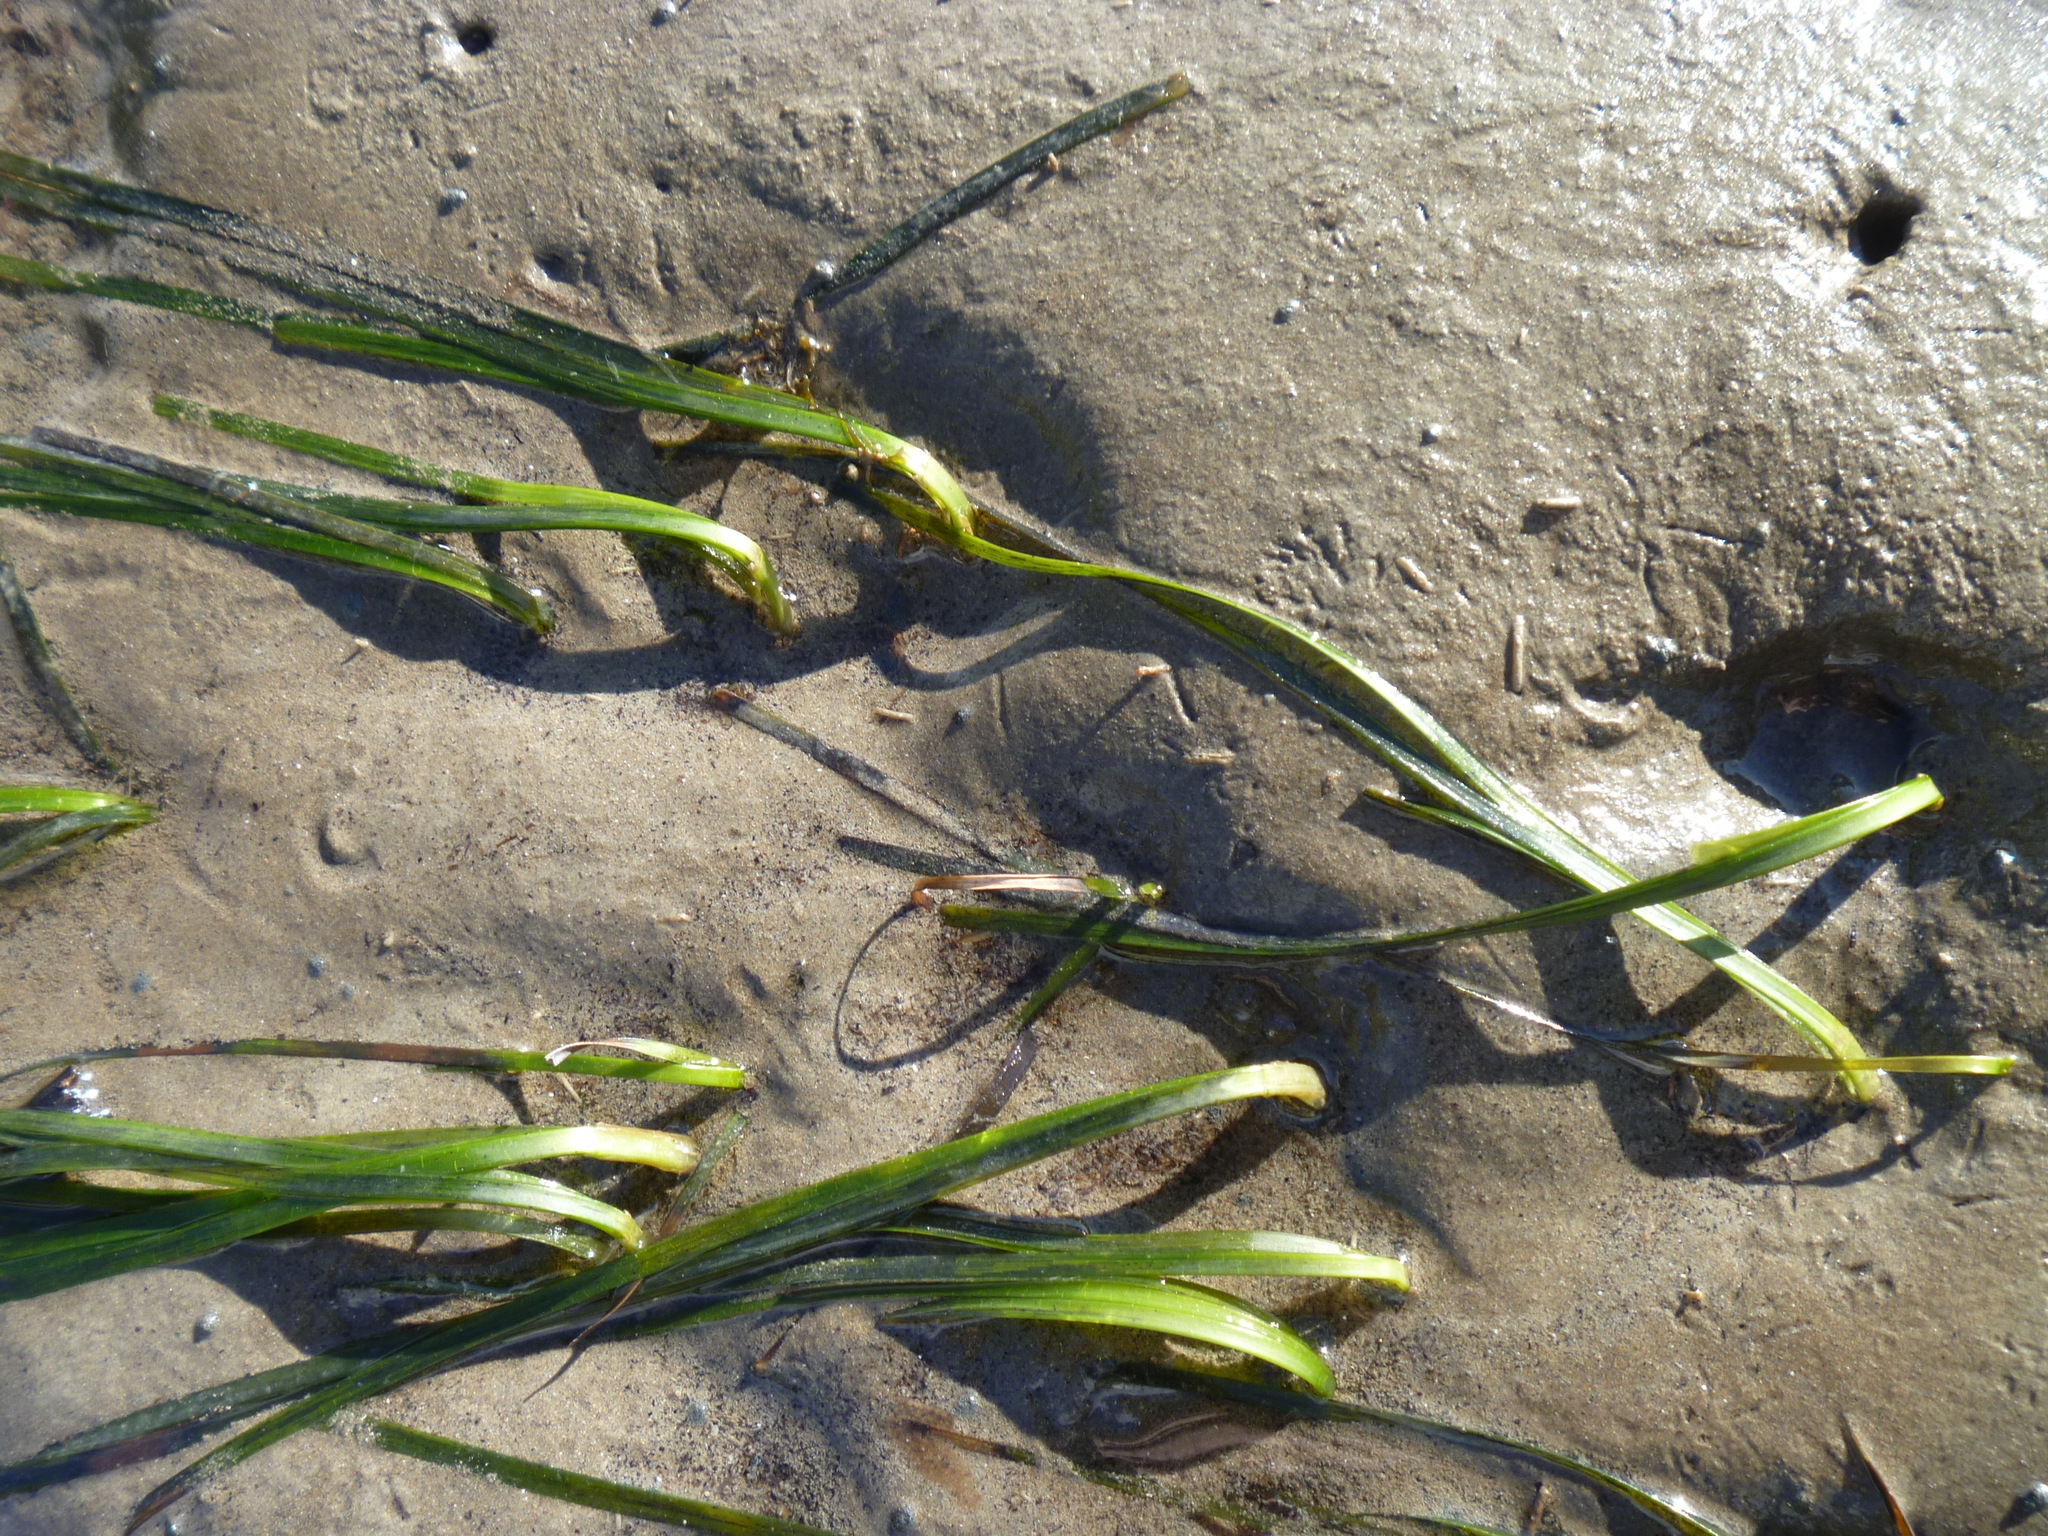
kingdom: Plantae
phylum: Tracheophyta
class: Liliopsida
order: Alismatales
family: Zosteraceae
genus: Zostera
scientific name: Zostera muelleri
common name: Species code: zc
